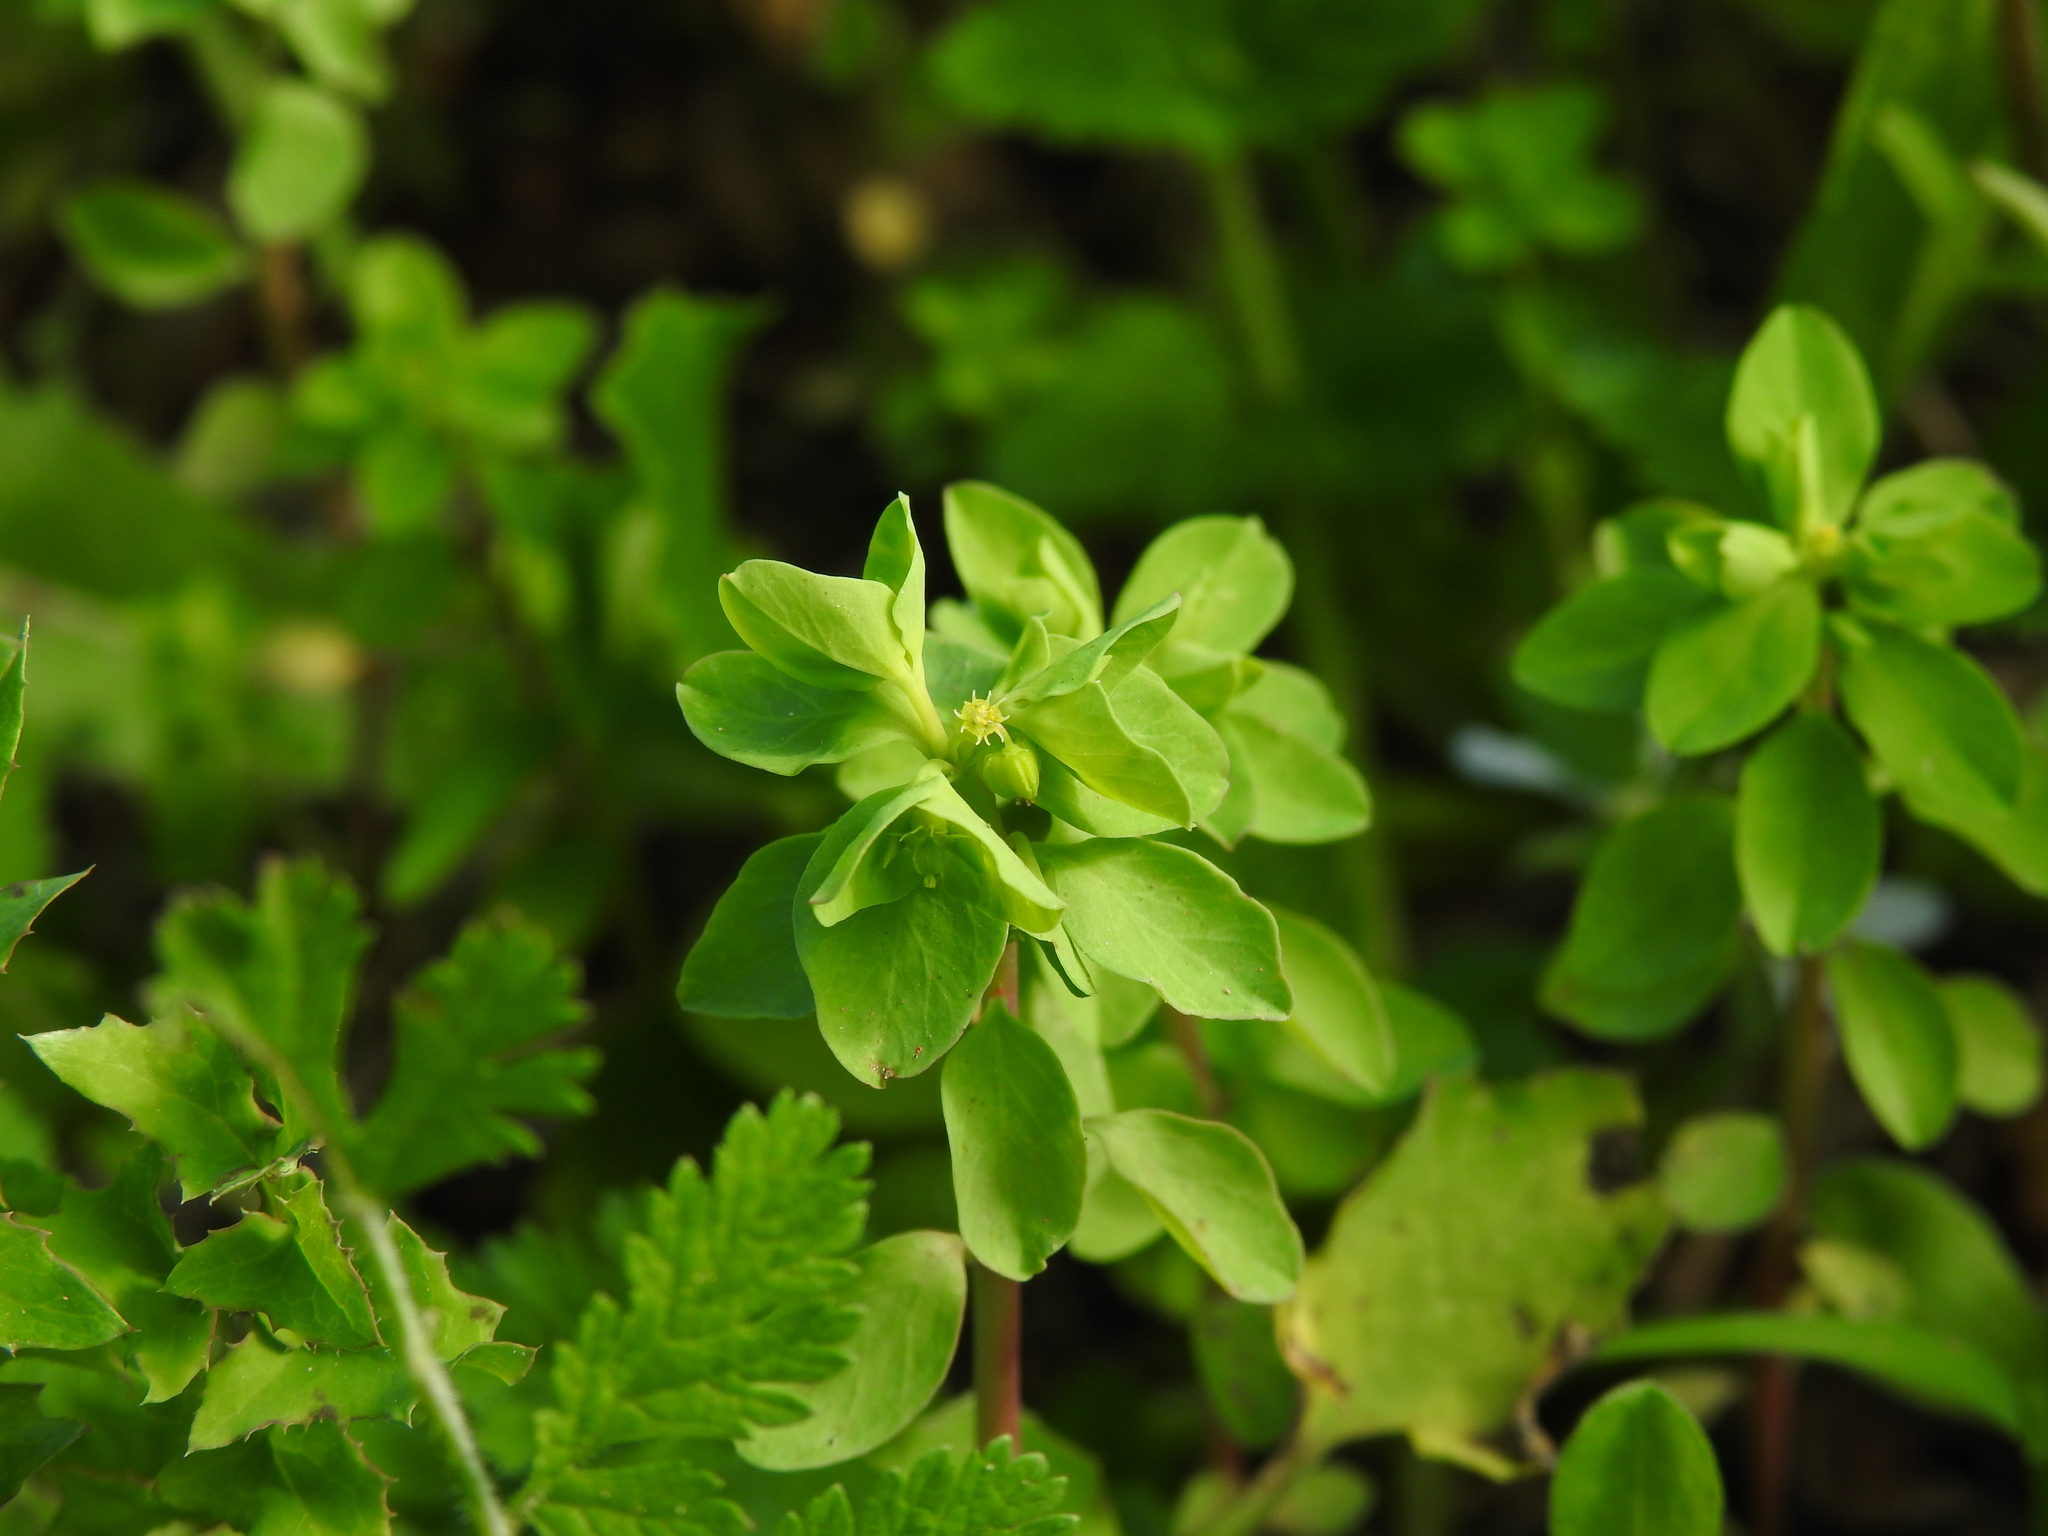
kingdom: Plantae
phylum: Tracheophyta
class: Magnoliopsida
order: Malpighiales
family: Euphorbiaceae
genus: Euphorbia
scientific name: Euphorbia peplus
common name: Petty spurge
